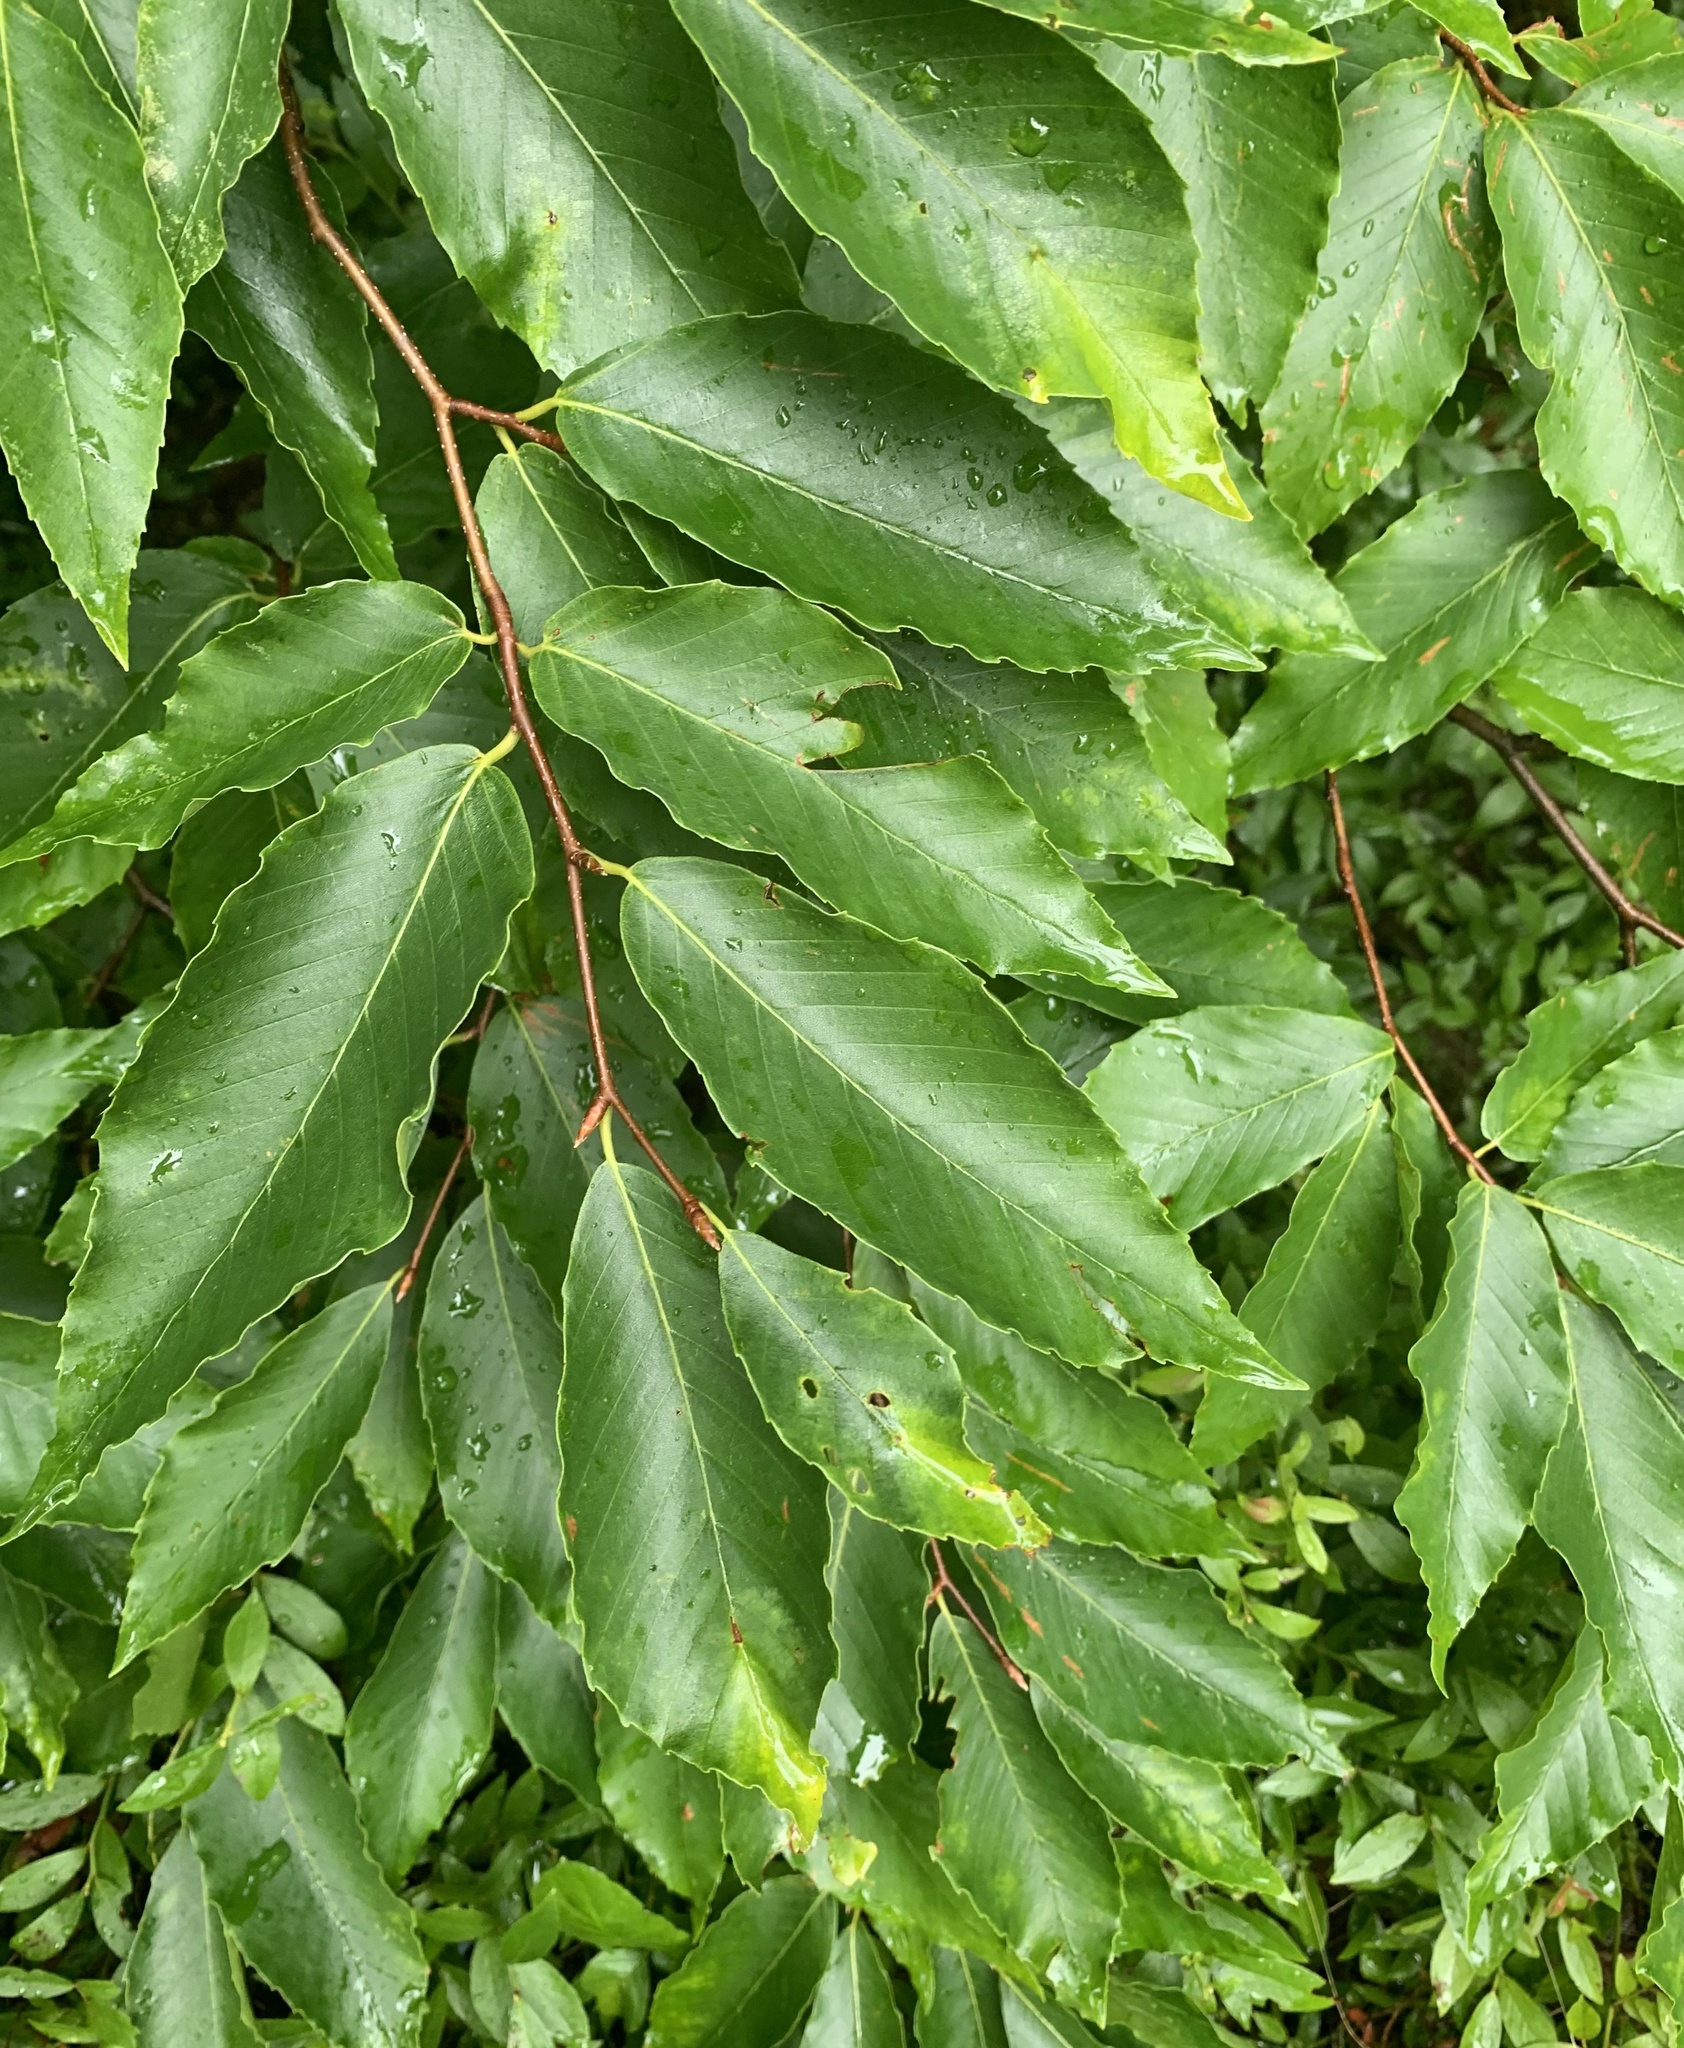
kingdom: Plantae
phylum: Tracheophyta
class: Magnoliopsida
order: Fagales
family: Fagaceae
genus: Fagus
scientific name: Fagus grandifolia
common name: American beech
